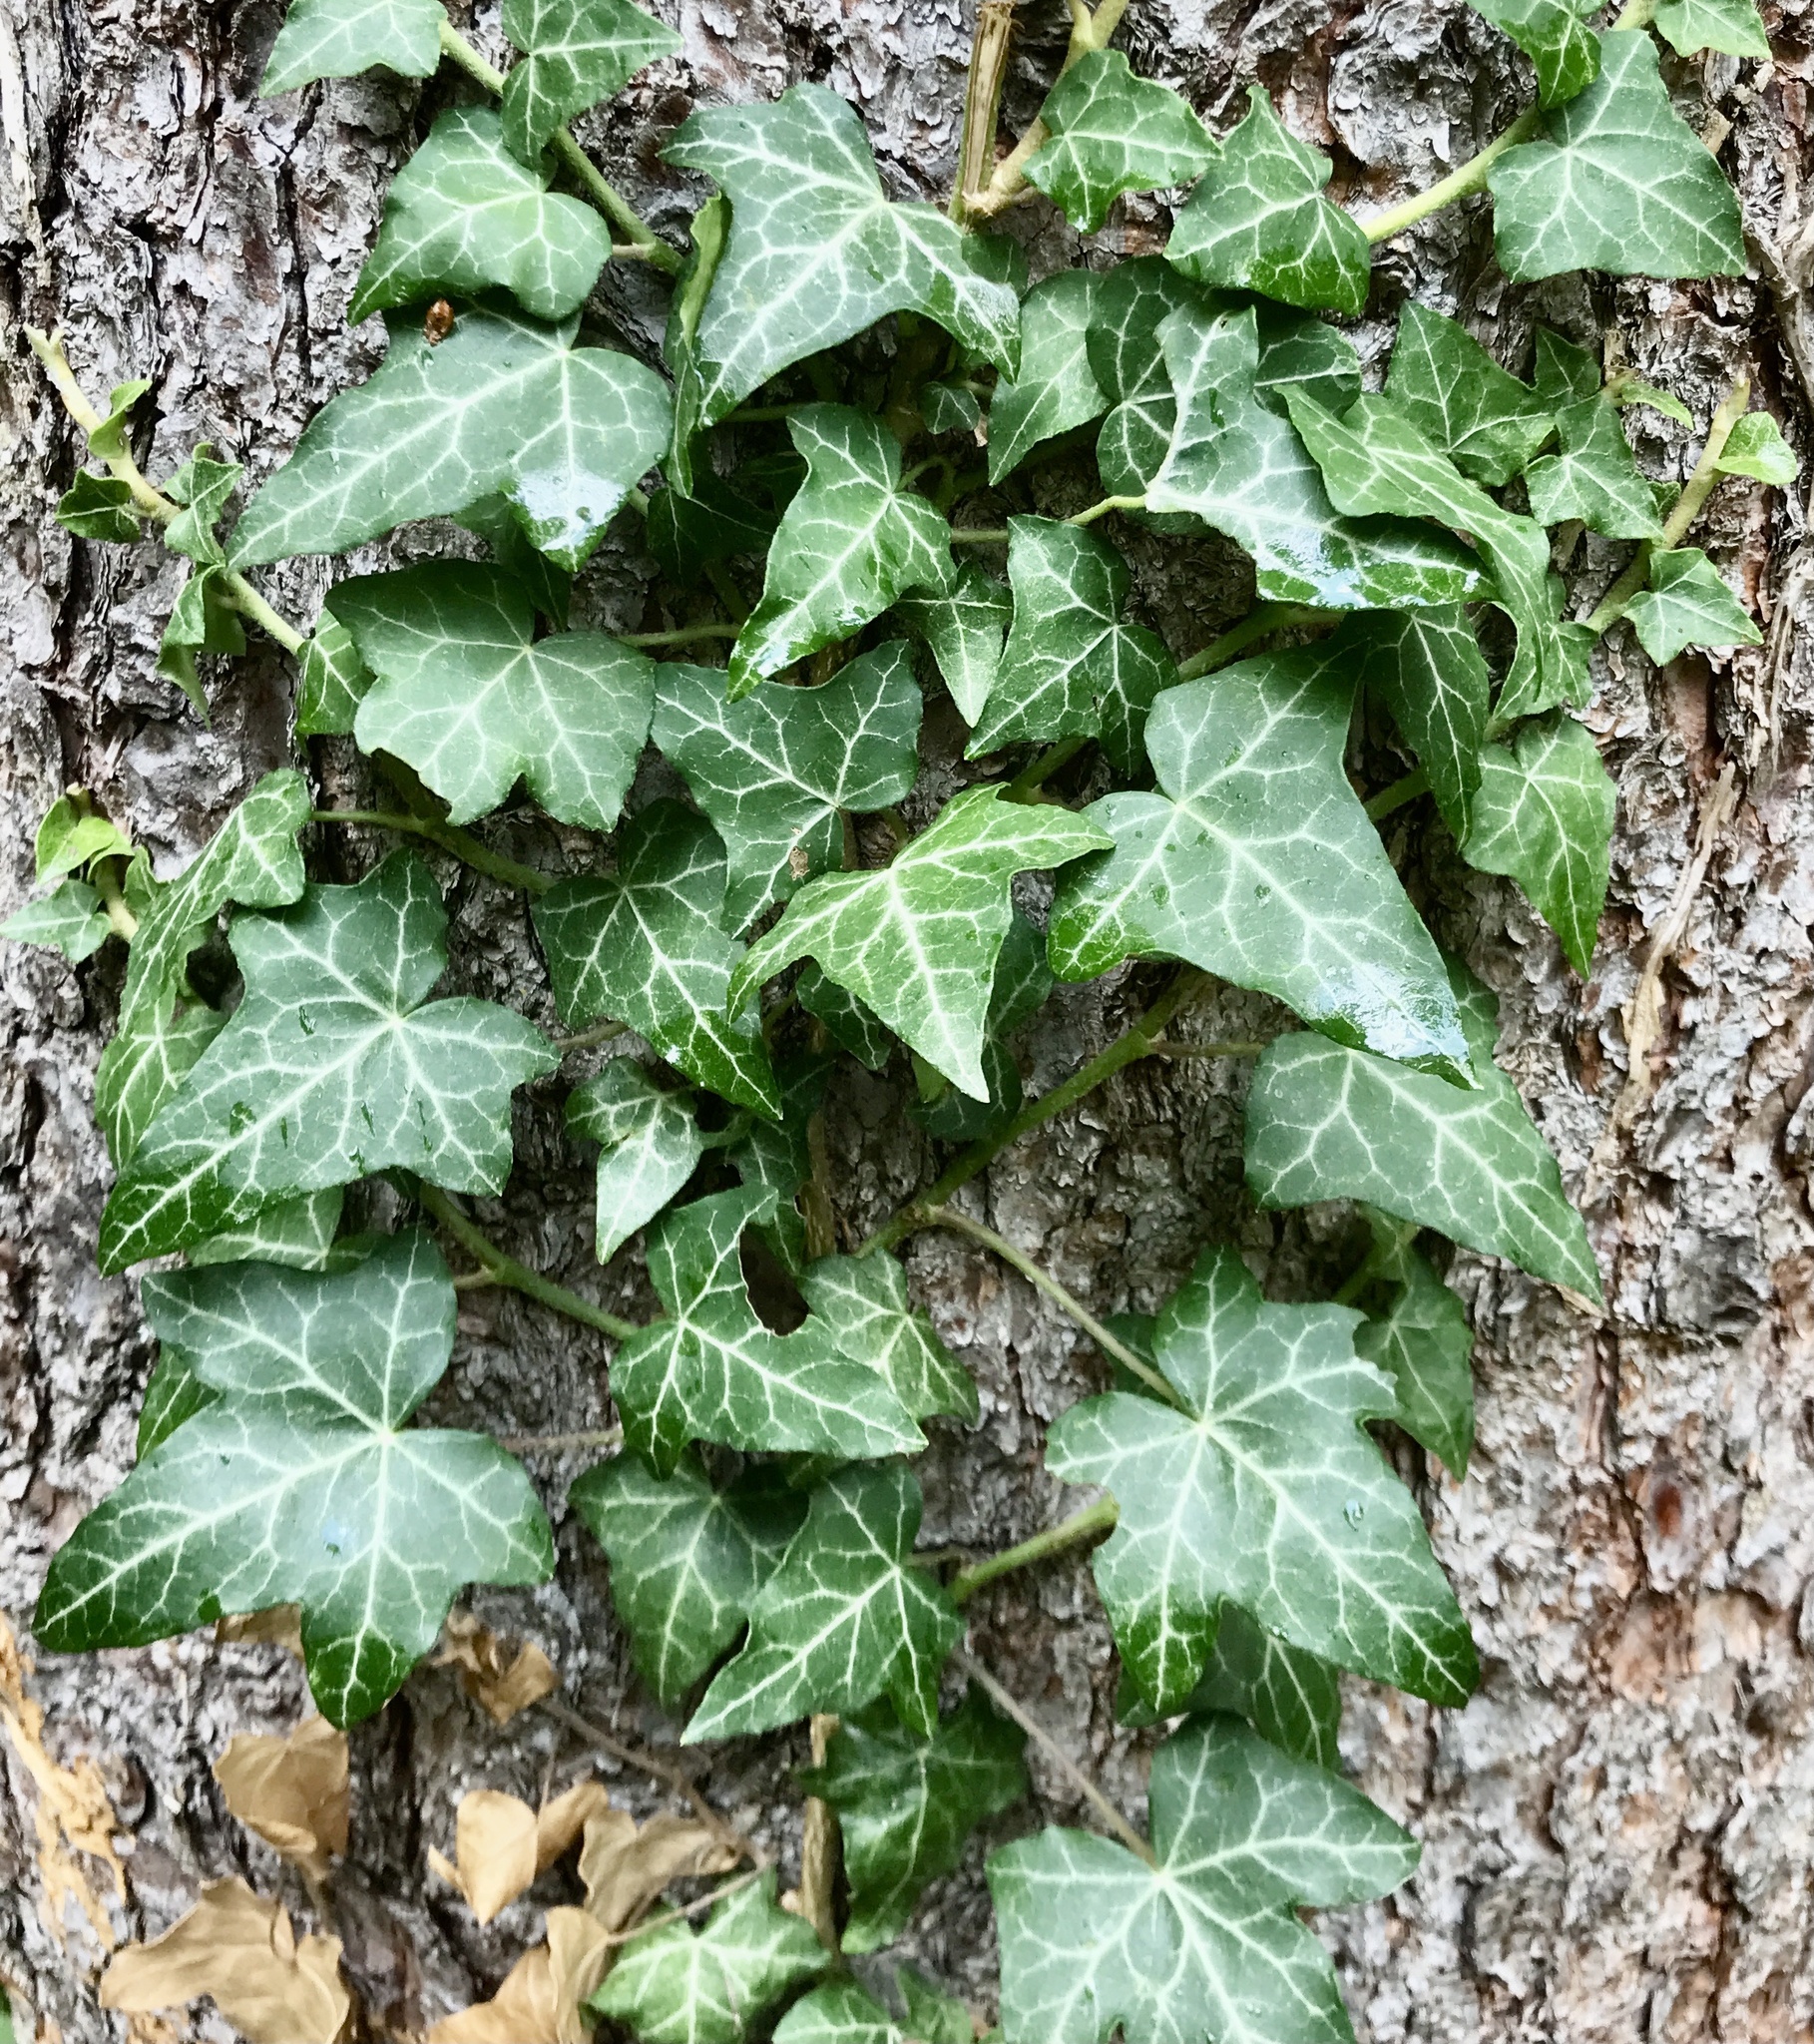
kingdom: Plantae
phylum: Tracheophyta
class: Magnoliopsida
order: Apiales
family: Araliaceae
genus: Hedera
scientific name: Hedera helix
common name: Ivy
